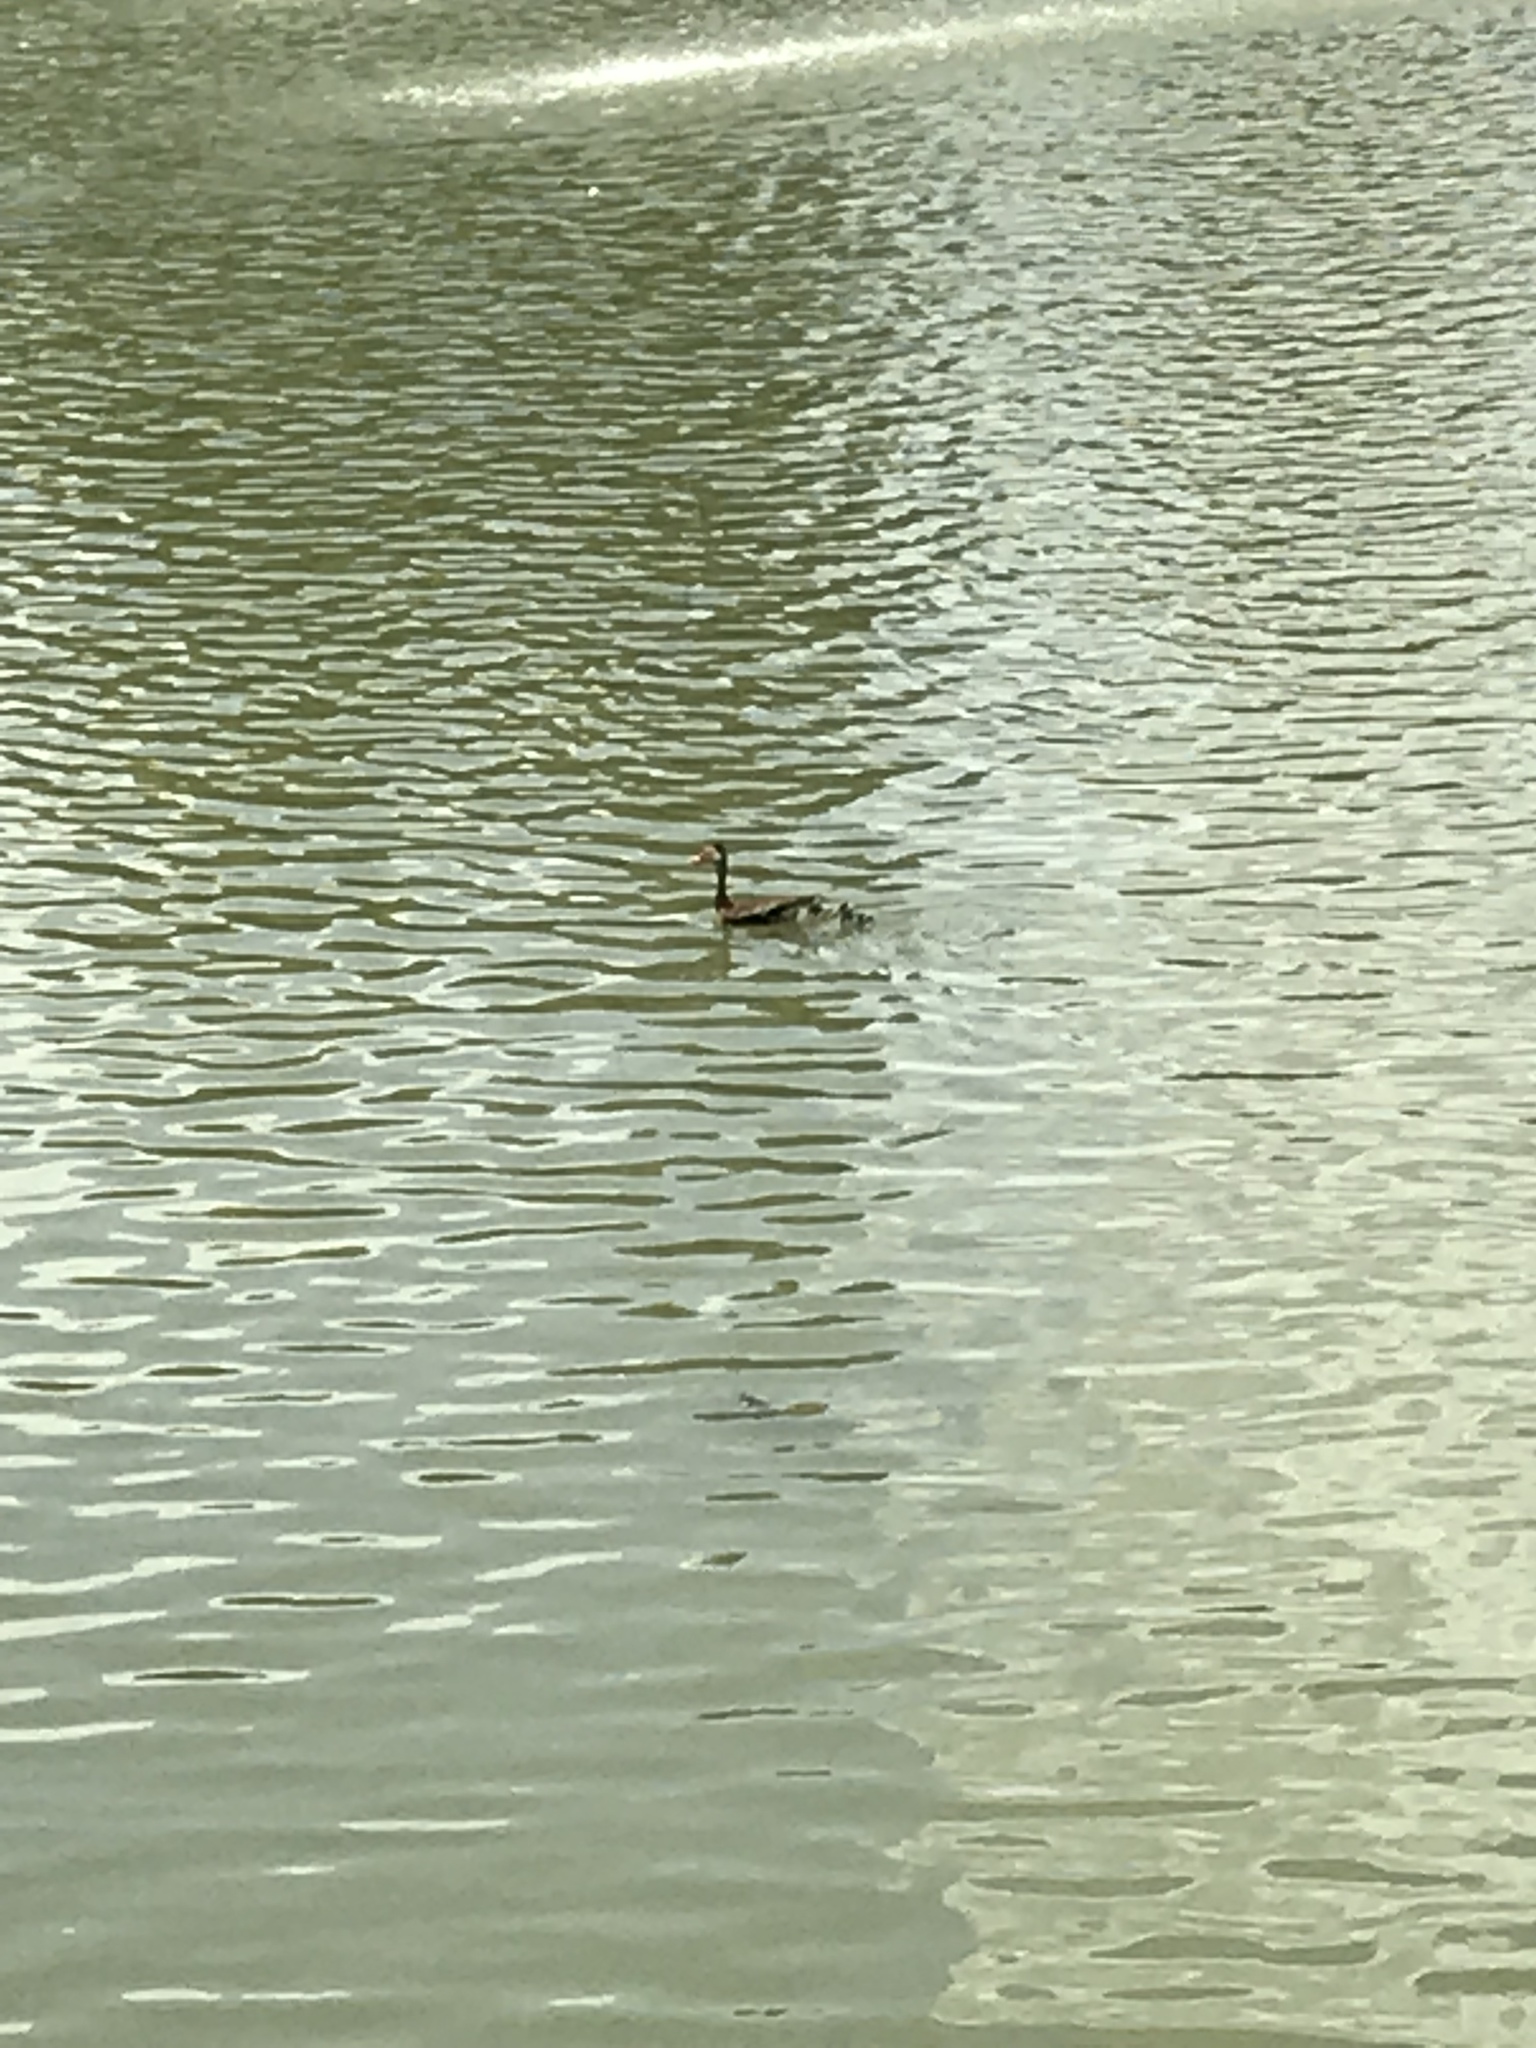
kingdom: Animalia
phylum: Chordata
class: Aves
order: Anseriformes
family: Anatidae
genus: Dendrocygna
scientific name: Dendrocygna autumnalis
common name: Black-bellied whistling duck
